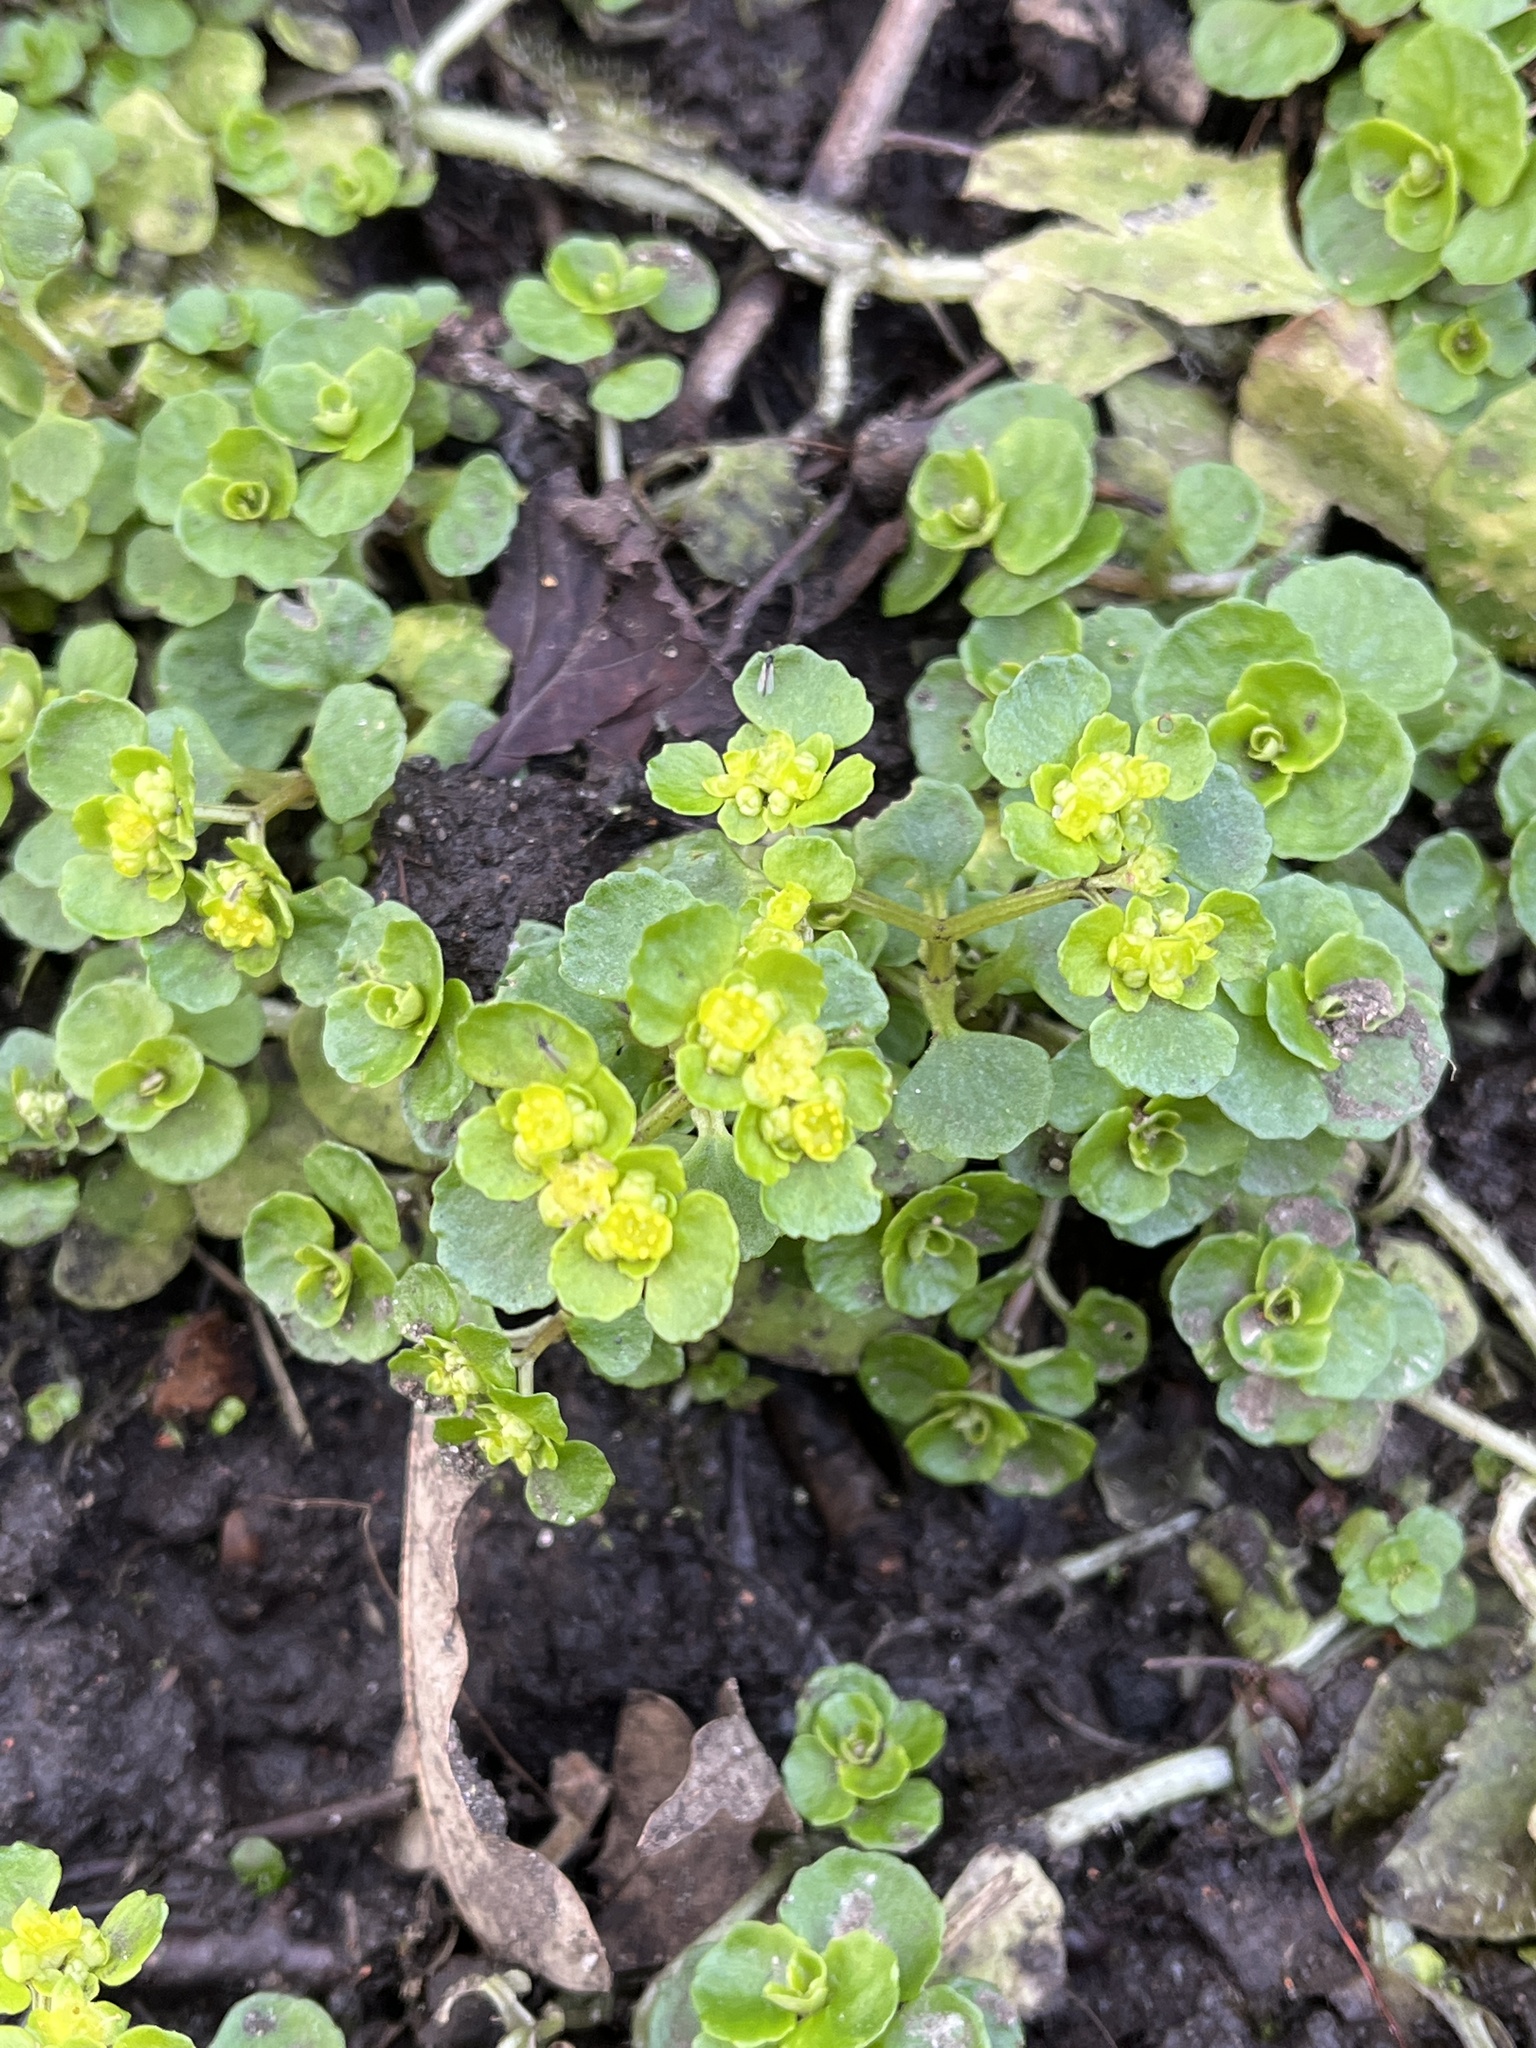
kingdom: Plantae
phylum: Tracheophyta
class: Magnoliopsida
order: Saxifragales
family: Saxifragaceae
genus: Chrysosplenium
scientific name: Chrysosplenium oppositifolium
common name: Opposite-leaved golden-saxifrage
